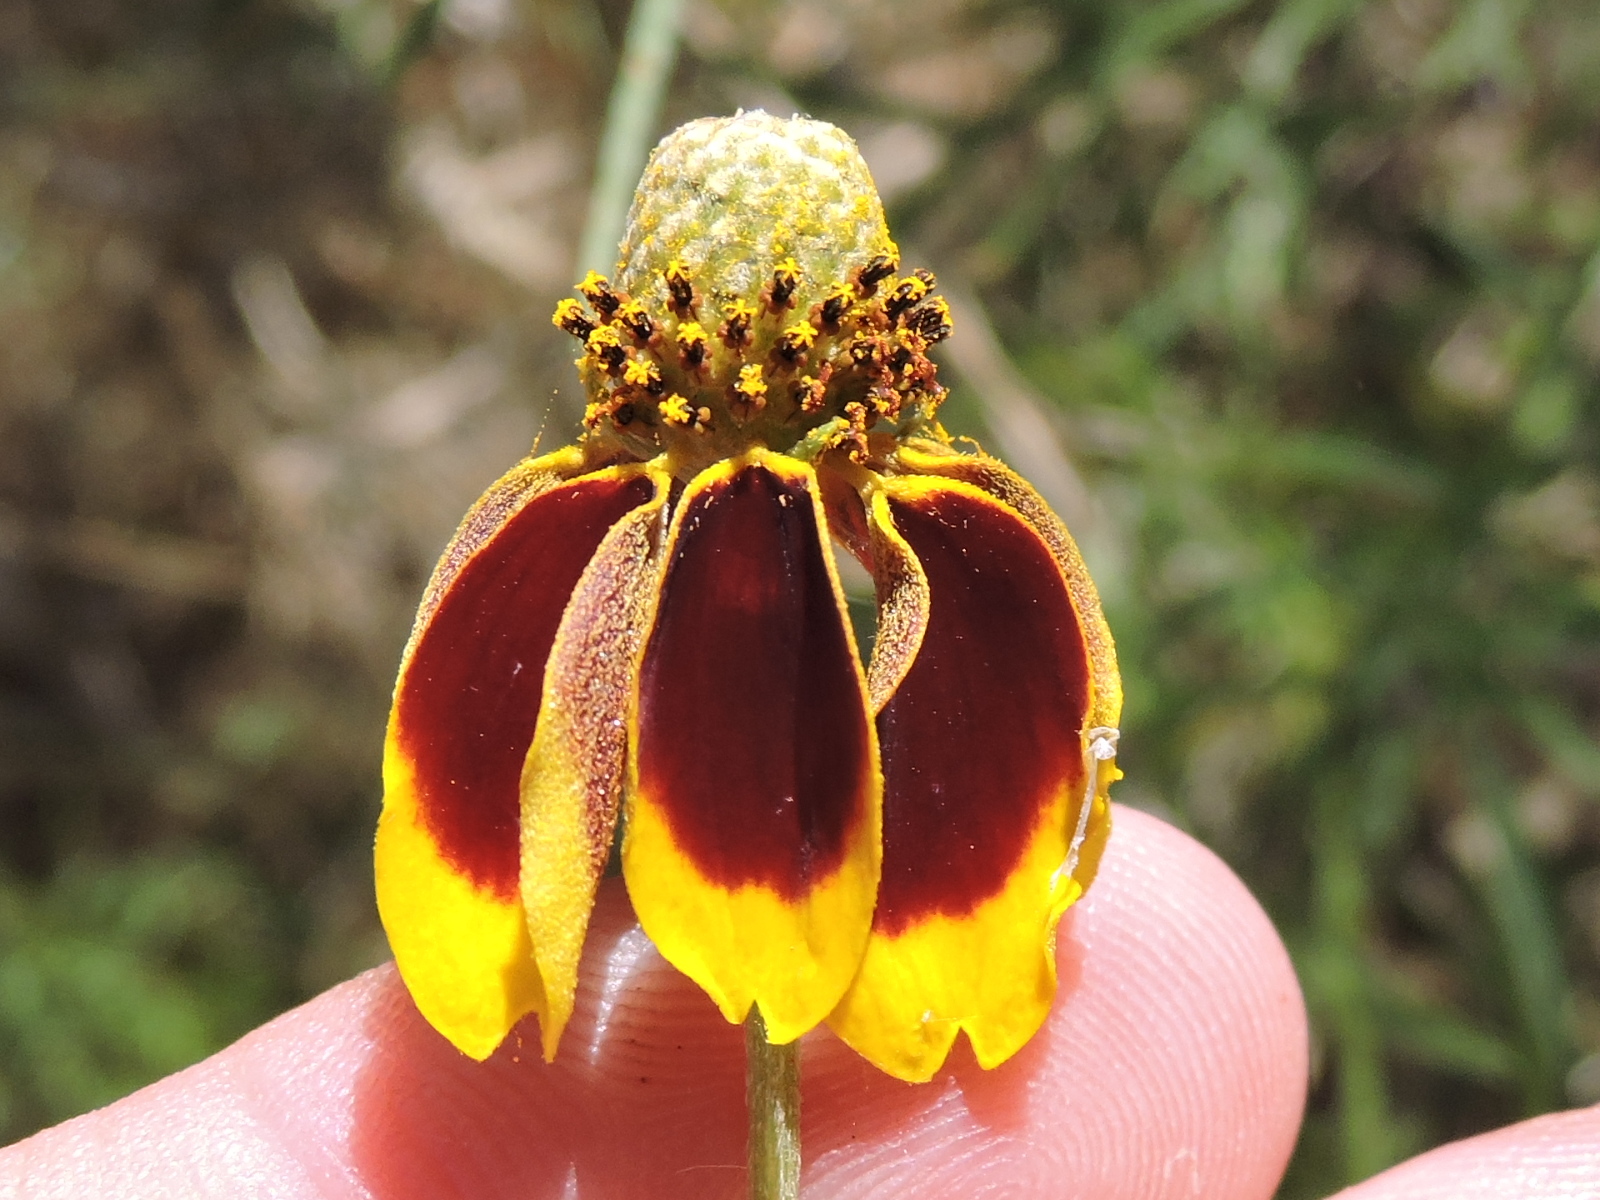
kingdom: Plantae
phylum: Tracheophyta
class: Magnoliopsida
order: Asterales
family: Asteraceae
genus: Ratibida
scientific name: Ratibida columnifera
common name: Prairie coneflower
